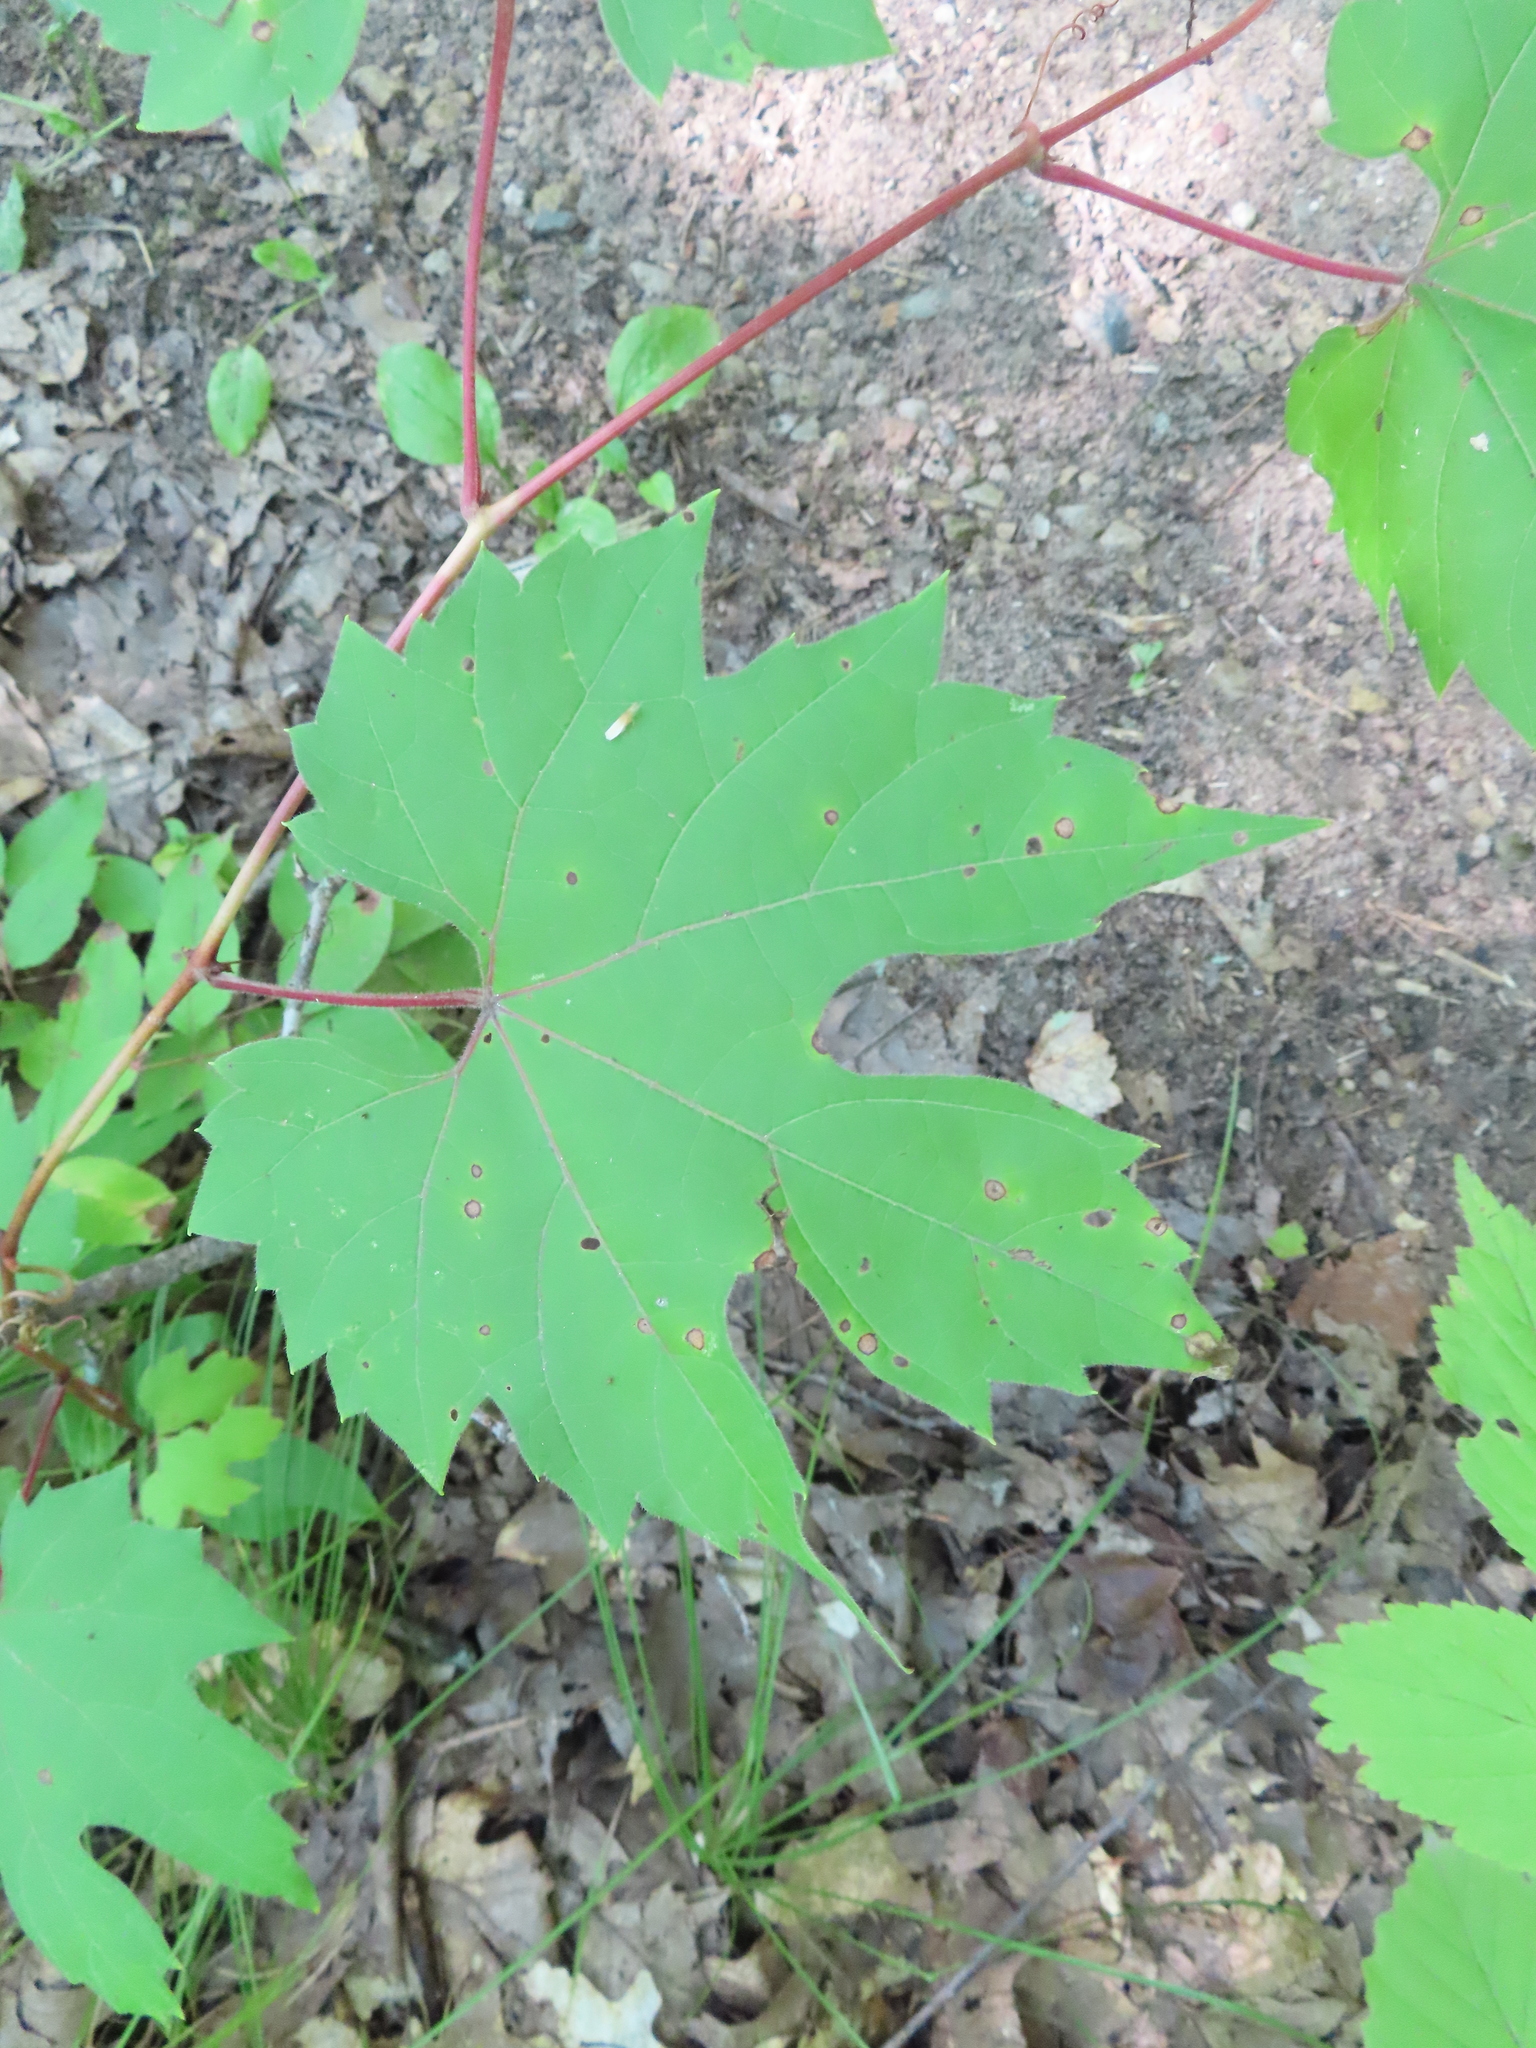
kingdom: Plantae
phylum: Tracheophyta
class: Magnoliopsida
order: Vitales
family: Vitaceae
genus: Vitis
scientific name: Vitis riparia
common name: Frost grape
